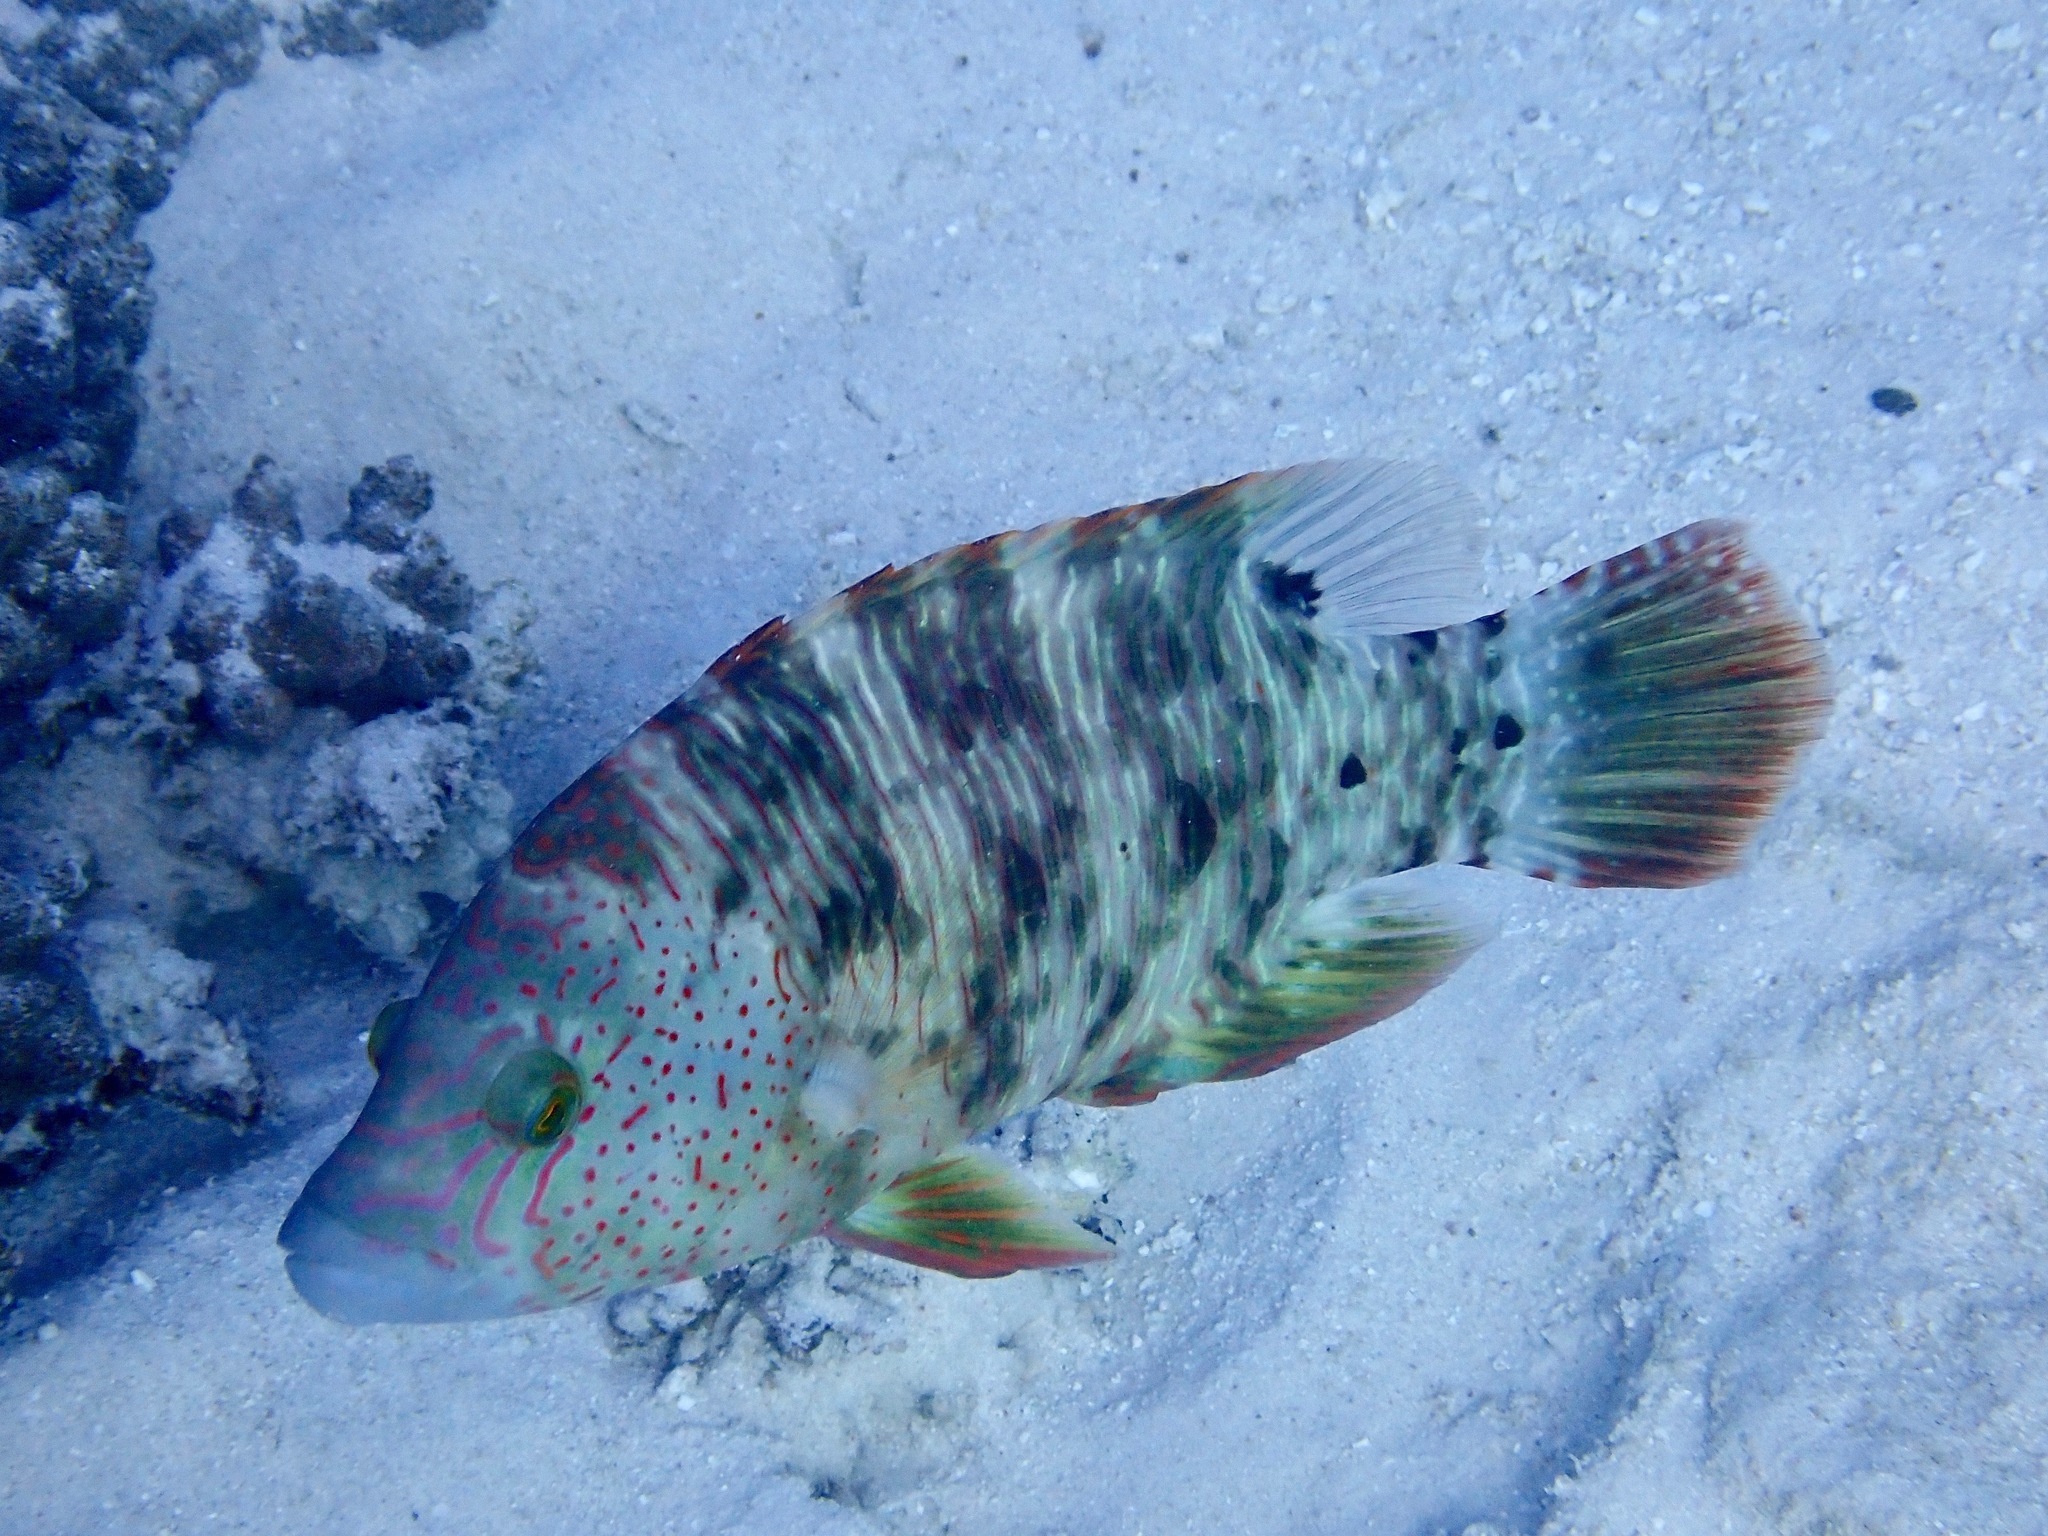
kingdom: Animalia
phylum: Chordata
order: Perciformes
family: Labridae
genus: Cheilinus
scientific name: Cheilinus trilobatus
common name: Tripletail maori wrasse
